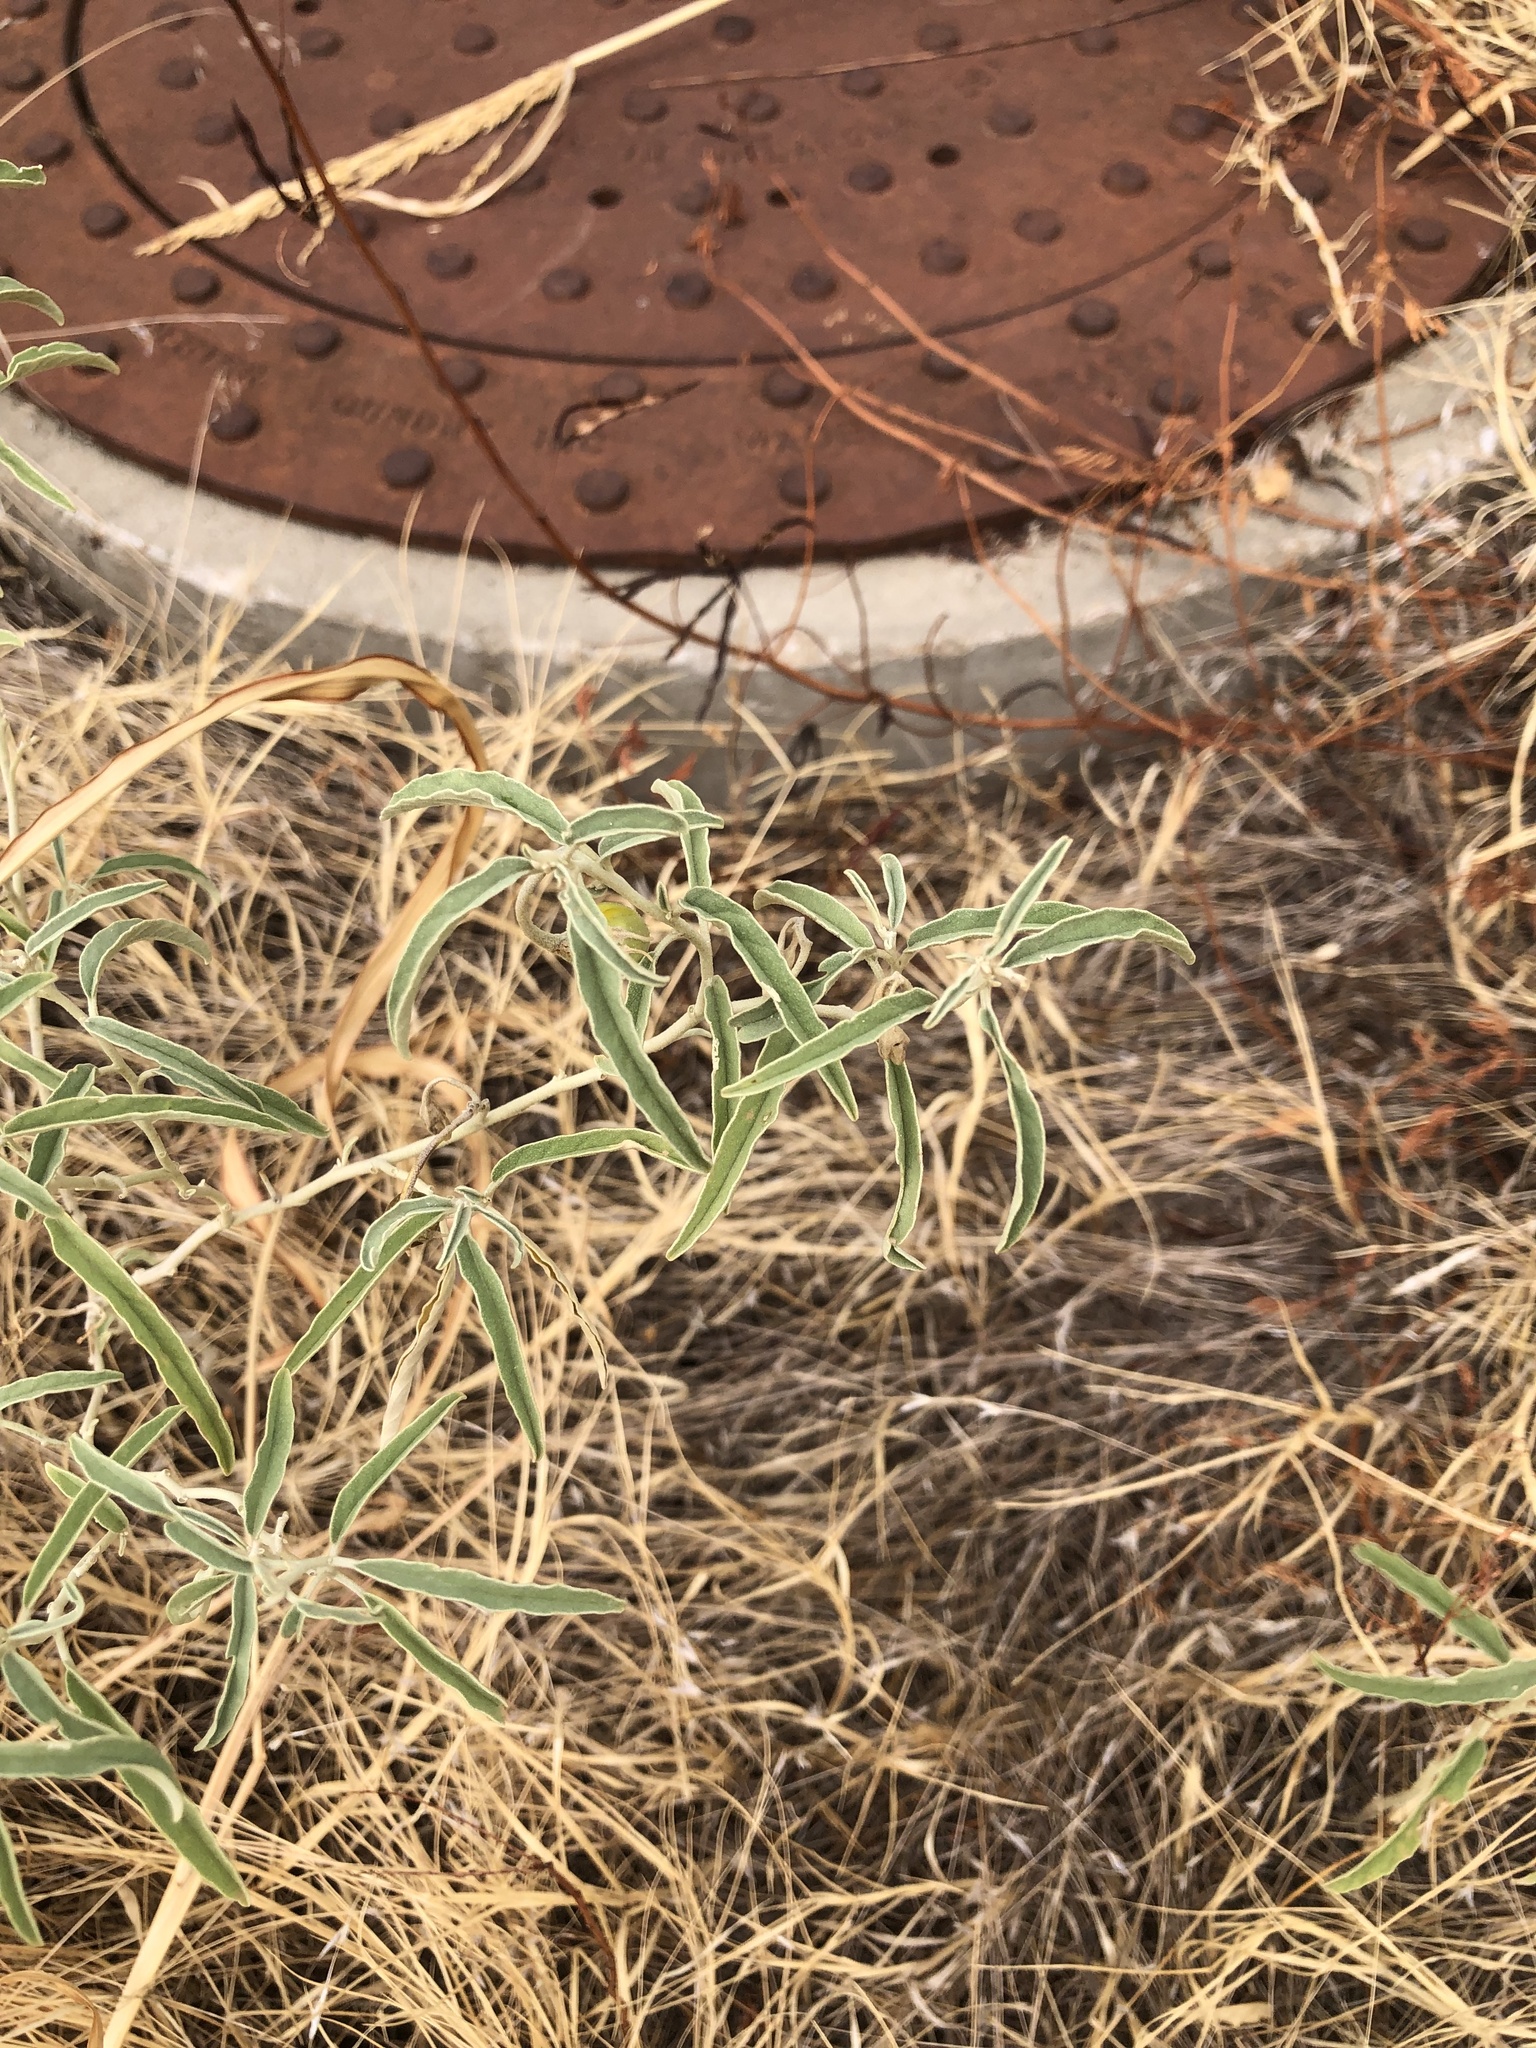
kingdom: Plantae
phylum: Tracheophyta
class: Magnoliopsida
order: Solanales
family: Solanaceae
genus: Solanum
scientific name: Solanum elaeagnifolium
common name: Silverleaf nightshade
